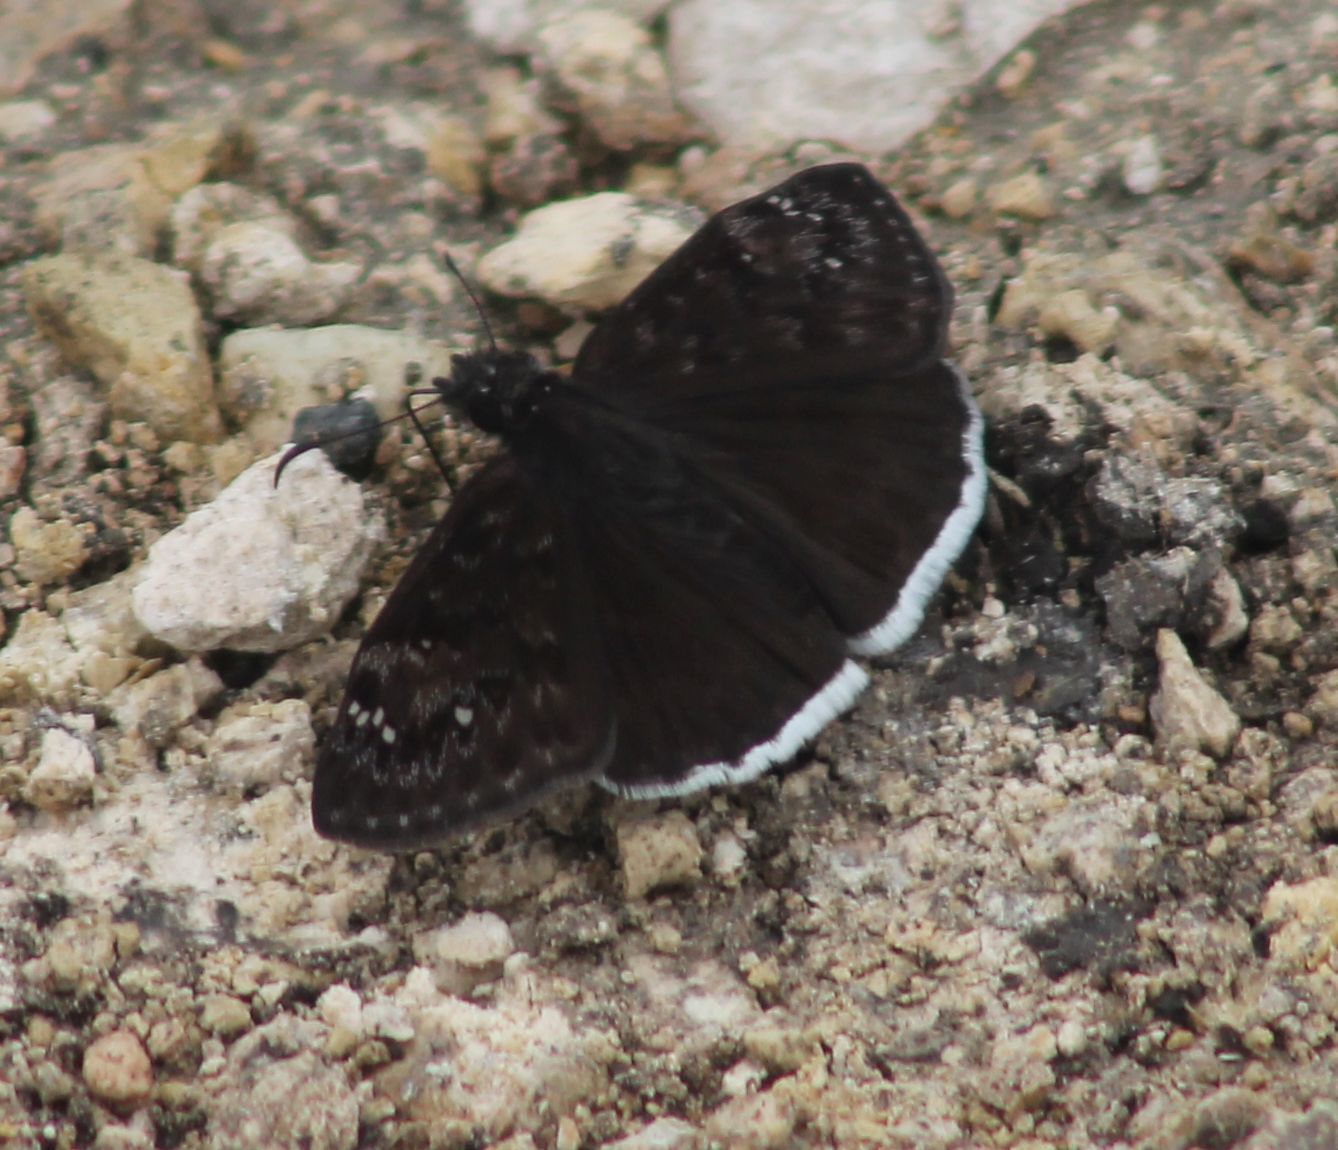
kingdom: Animalia
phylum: Arthropoda
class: Insecta
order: Lepidoptera
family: Hesperiidae
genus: Erynnis
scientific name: Erynnis funeralis
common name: Funereal duskywing
